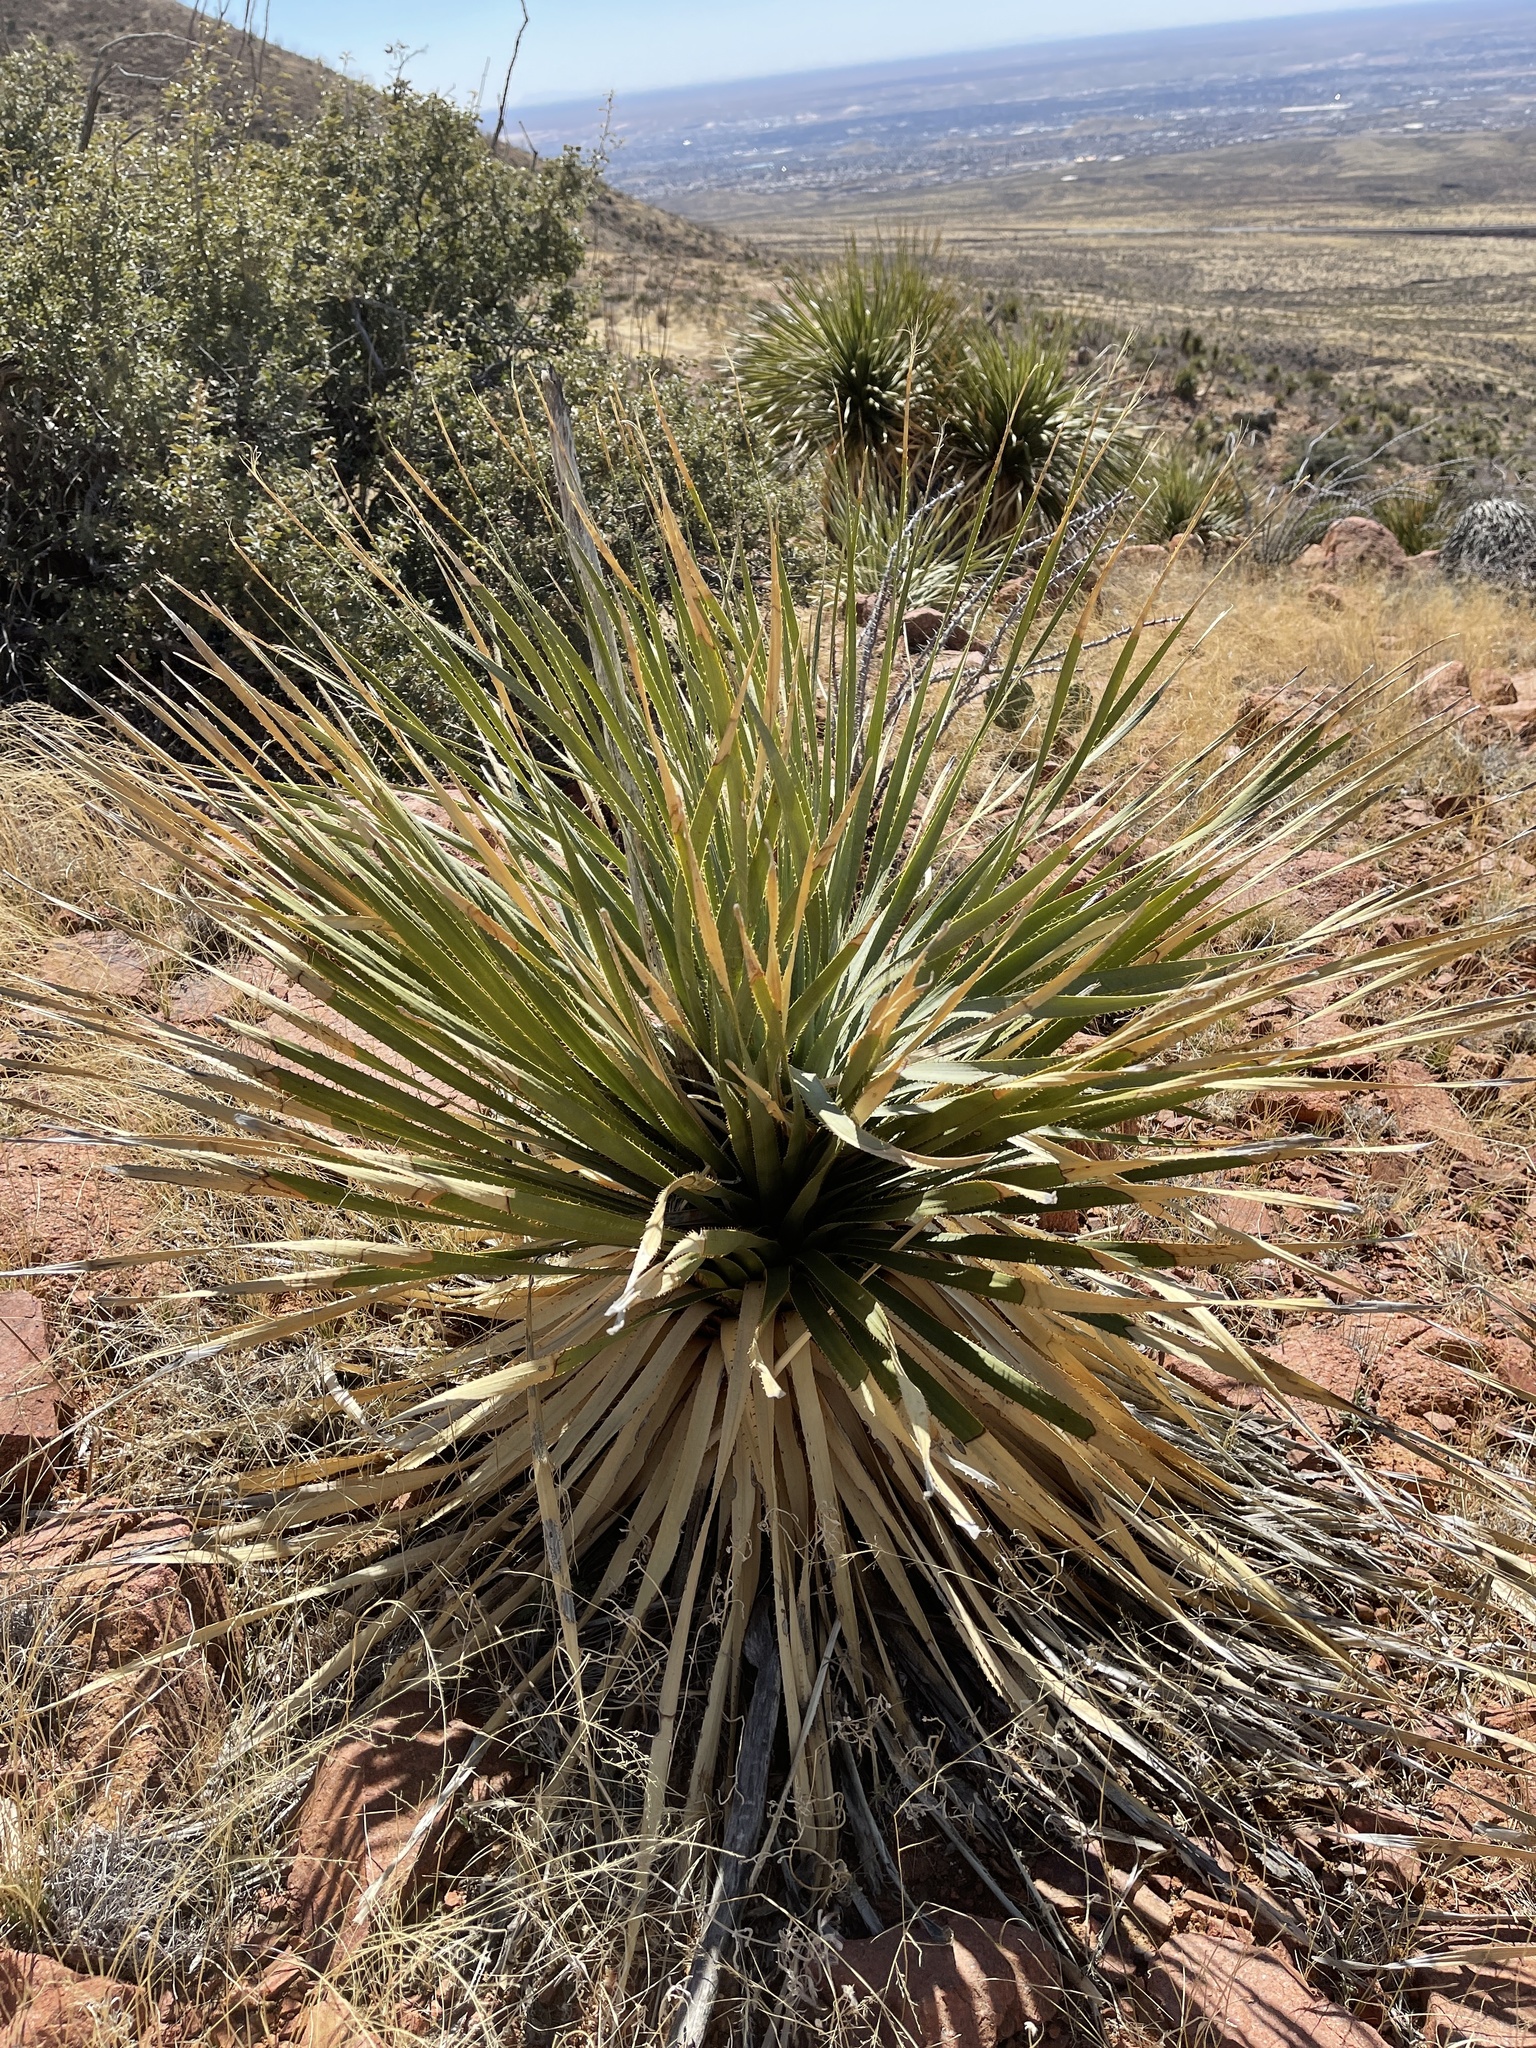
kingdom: Plantae
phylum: Tracheophyta
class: Liliopsida
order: Asparagales
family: Asparagaceae
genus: Dasylirion
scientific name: Dasylirion wheeleri
